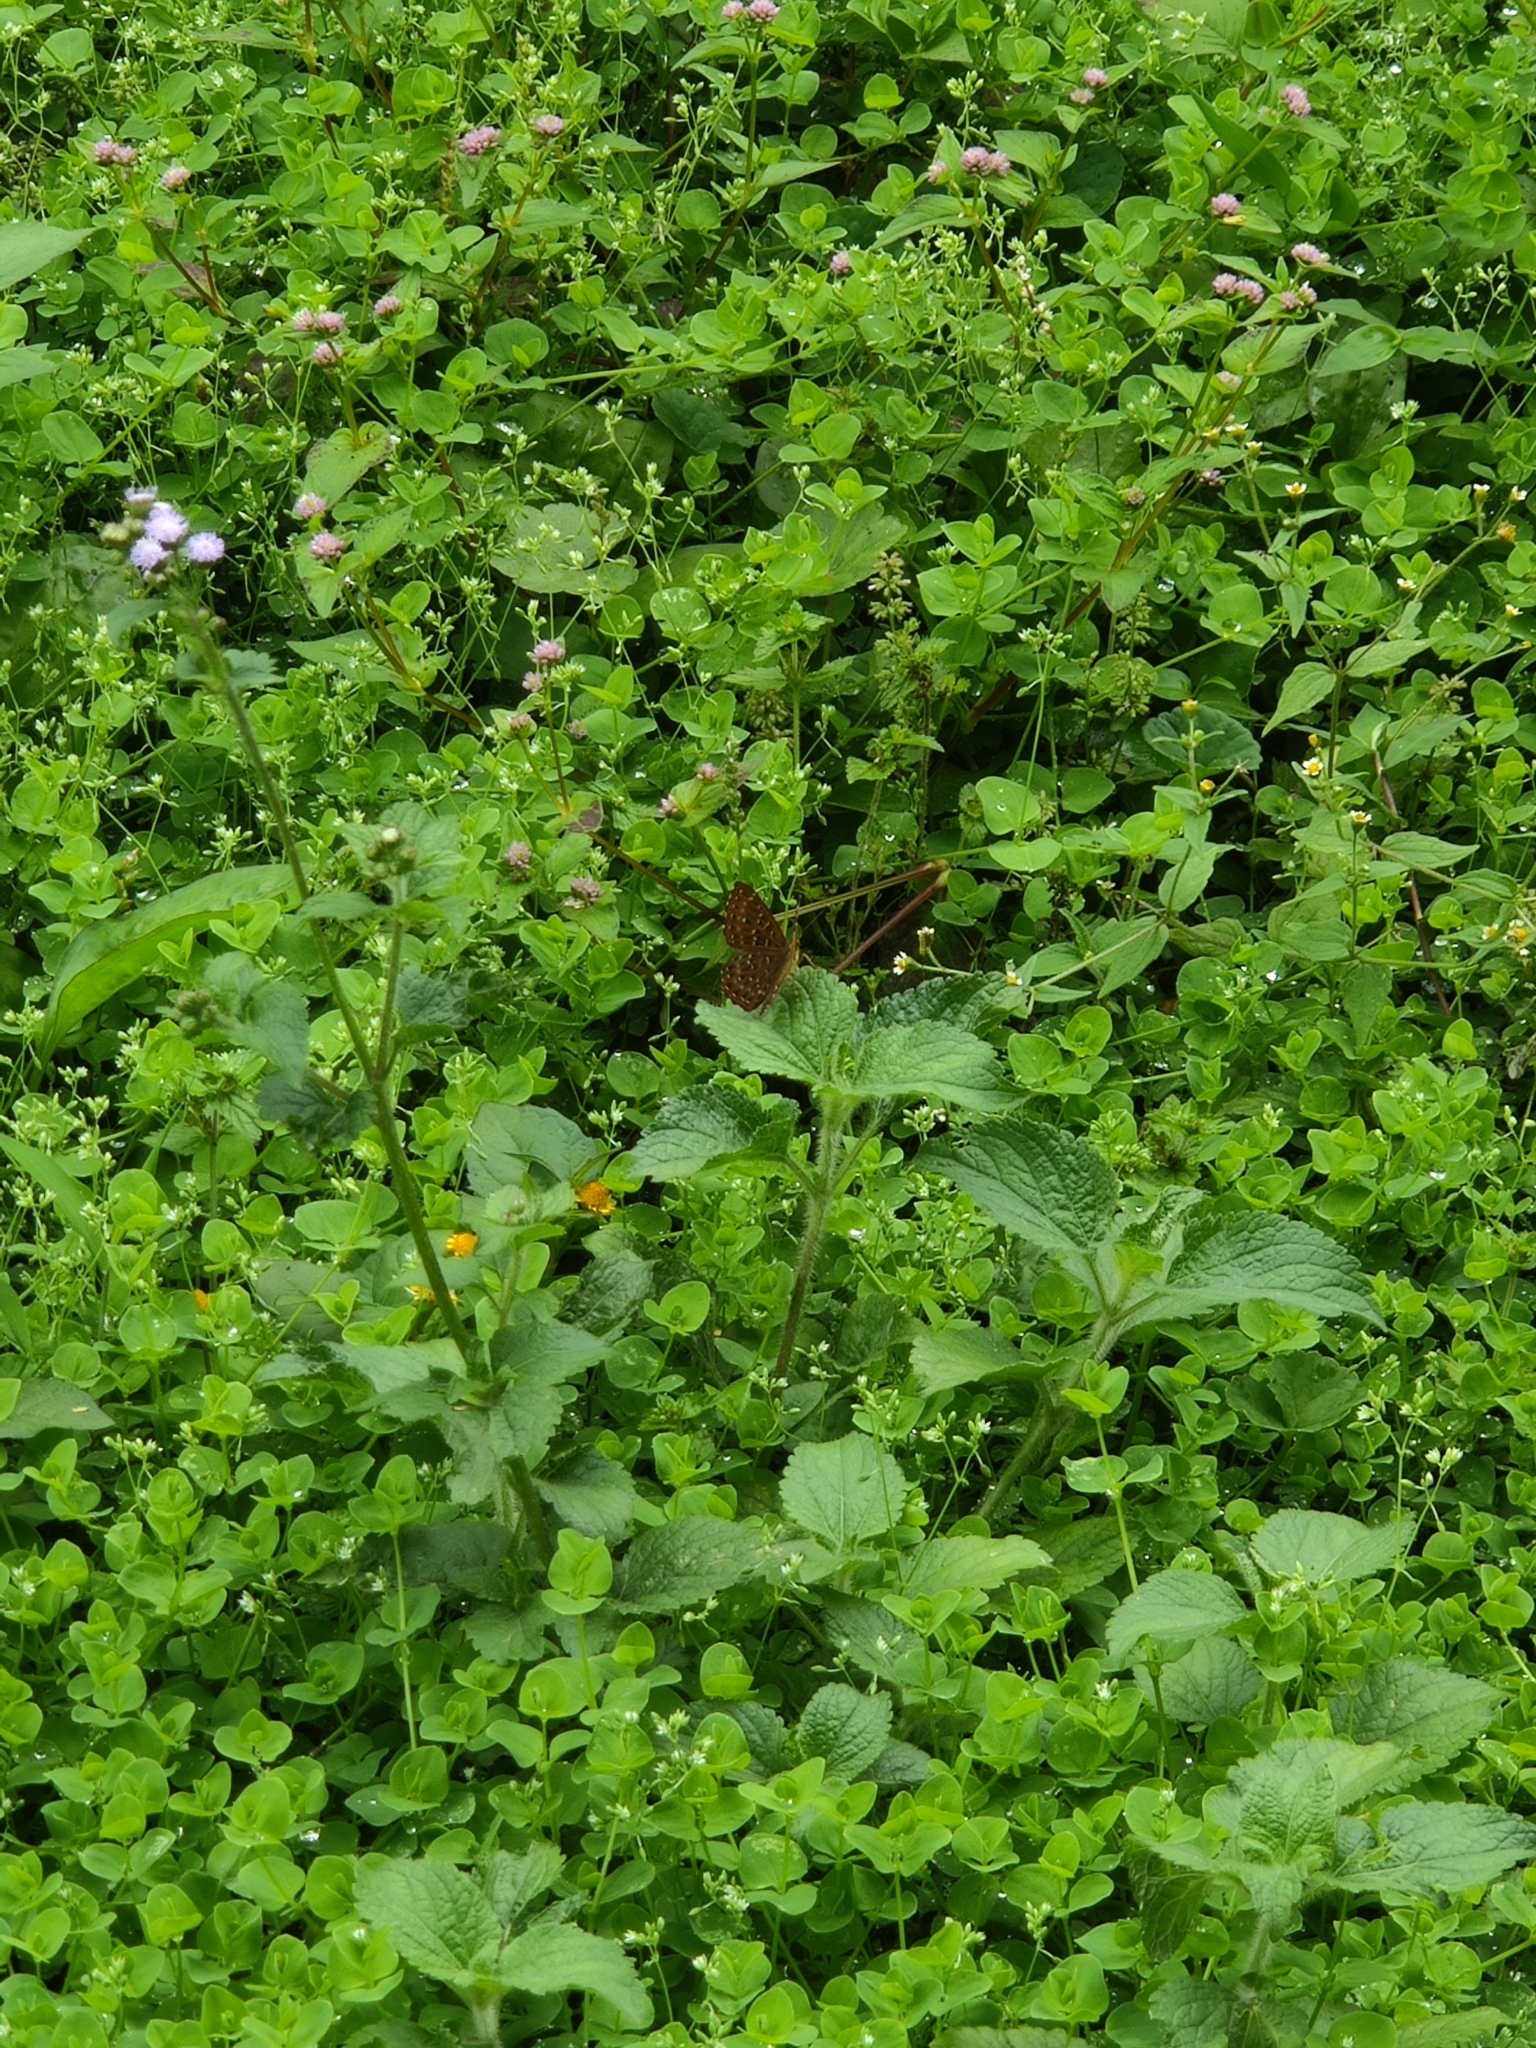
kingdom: Animalia
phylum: Arthropoda
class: Insecta
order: Lepidoptera
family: Riodinidae
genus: Zemeros
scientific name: Zemeros flegyas
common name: Punchinello
